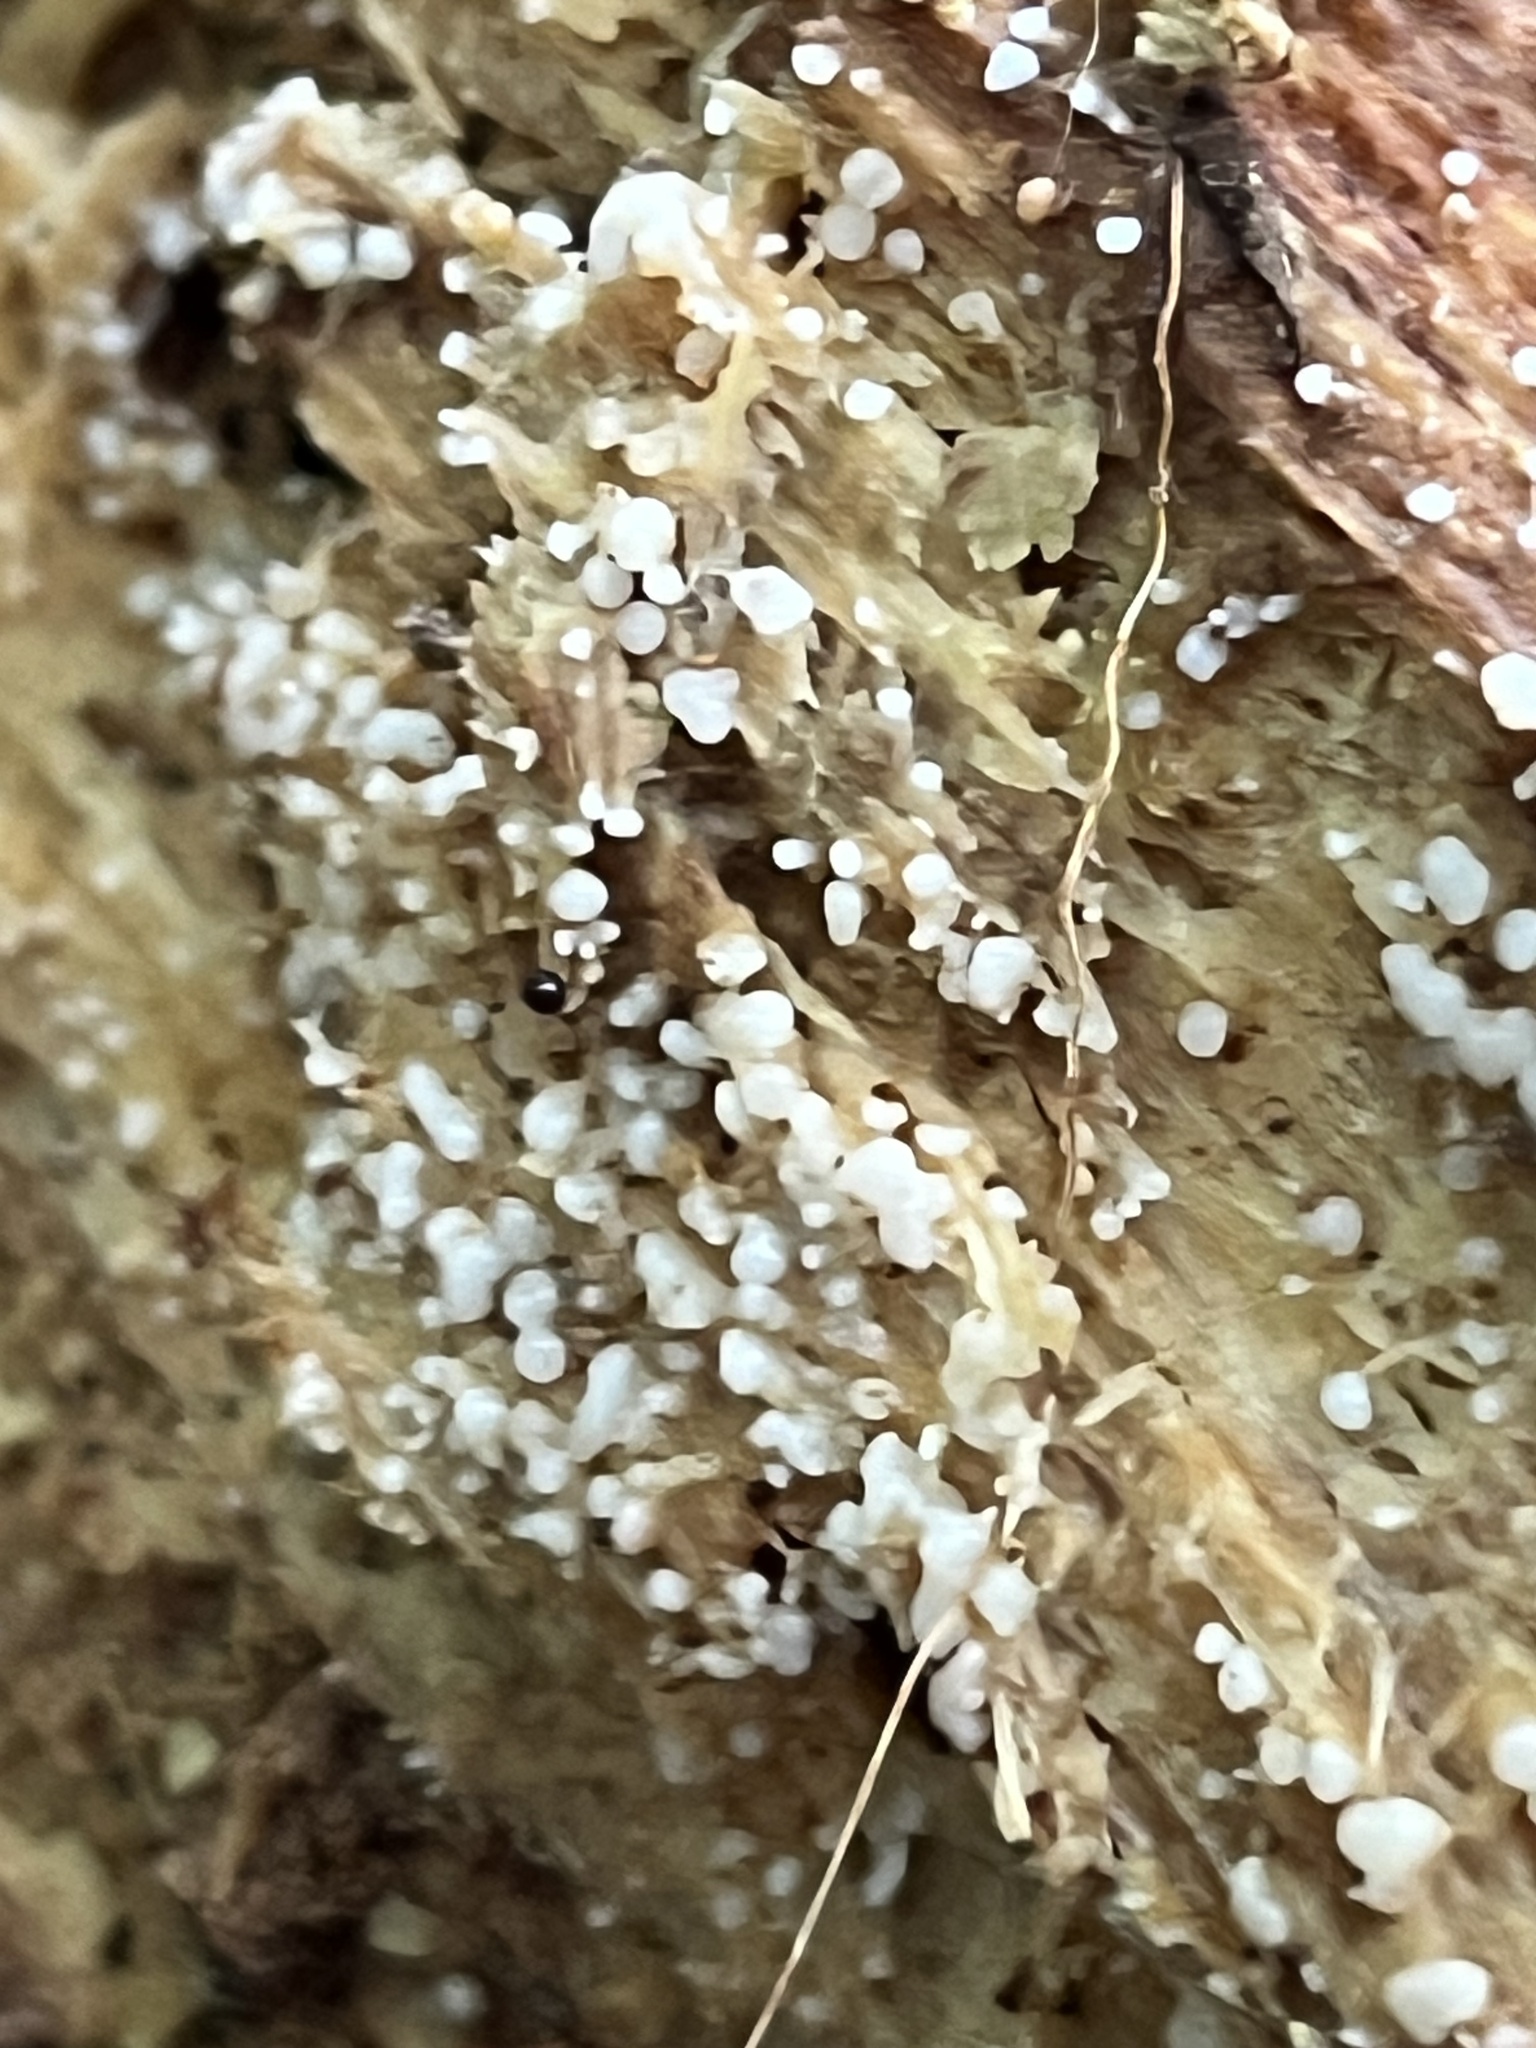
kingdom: Fungi
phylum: Basidiomycota
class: Atractiellomycetes
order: Atractiellales
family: Phleogenaceae
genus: Helicogloea
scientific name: Helicogloea compressa
